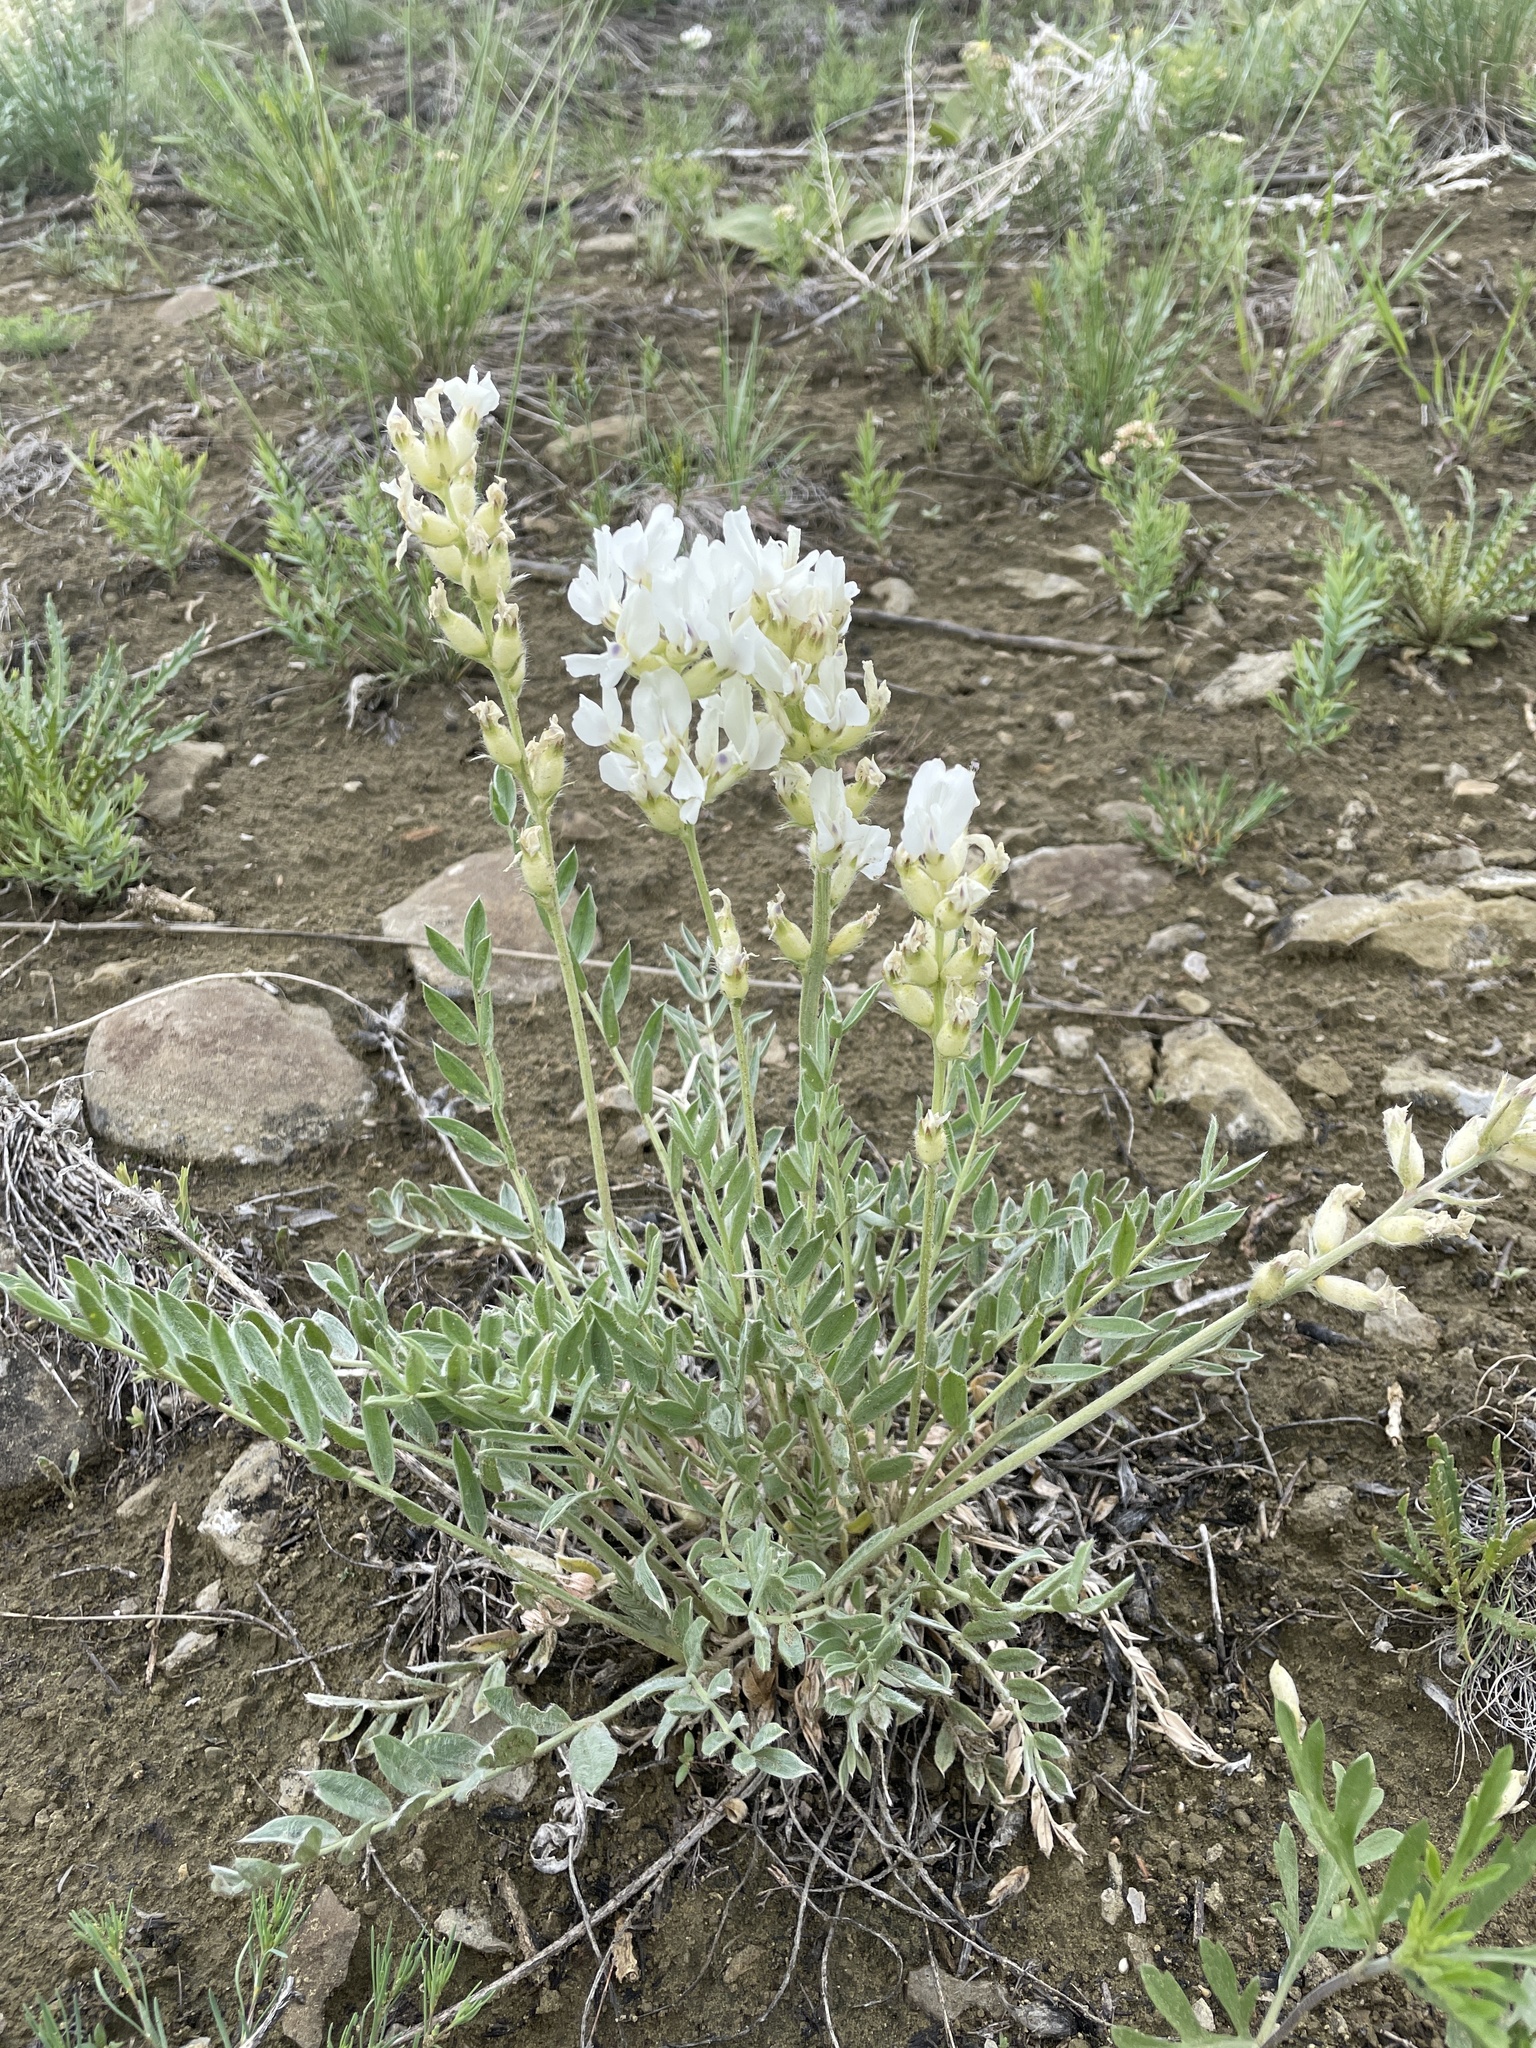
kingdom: Plantae
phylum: Tracheophyta
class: Magnoliopsida
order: Fabales
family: Fabaceae
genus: Oxytropis
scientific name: Oxytropis sericea
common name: Silky locoweed
